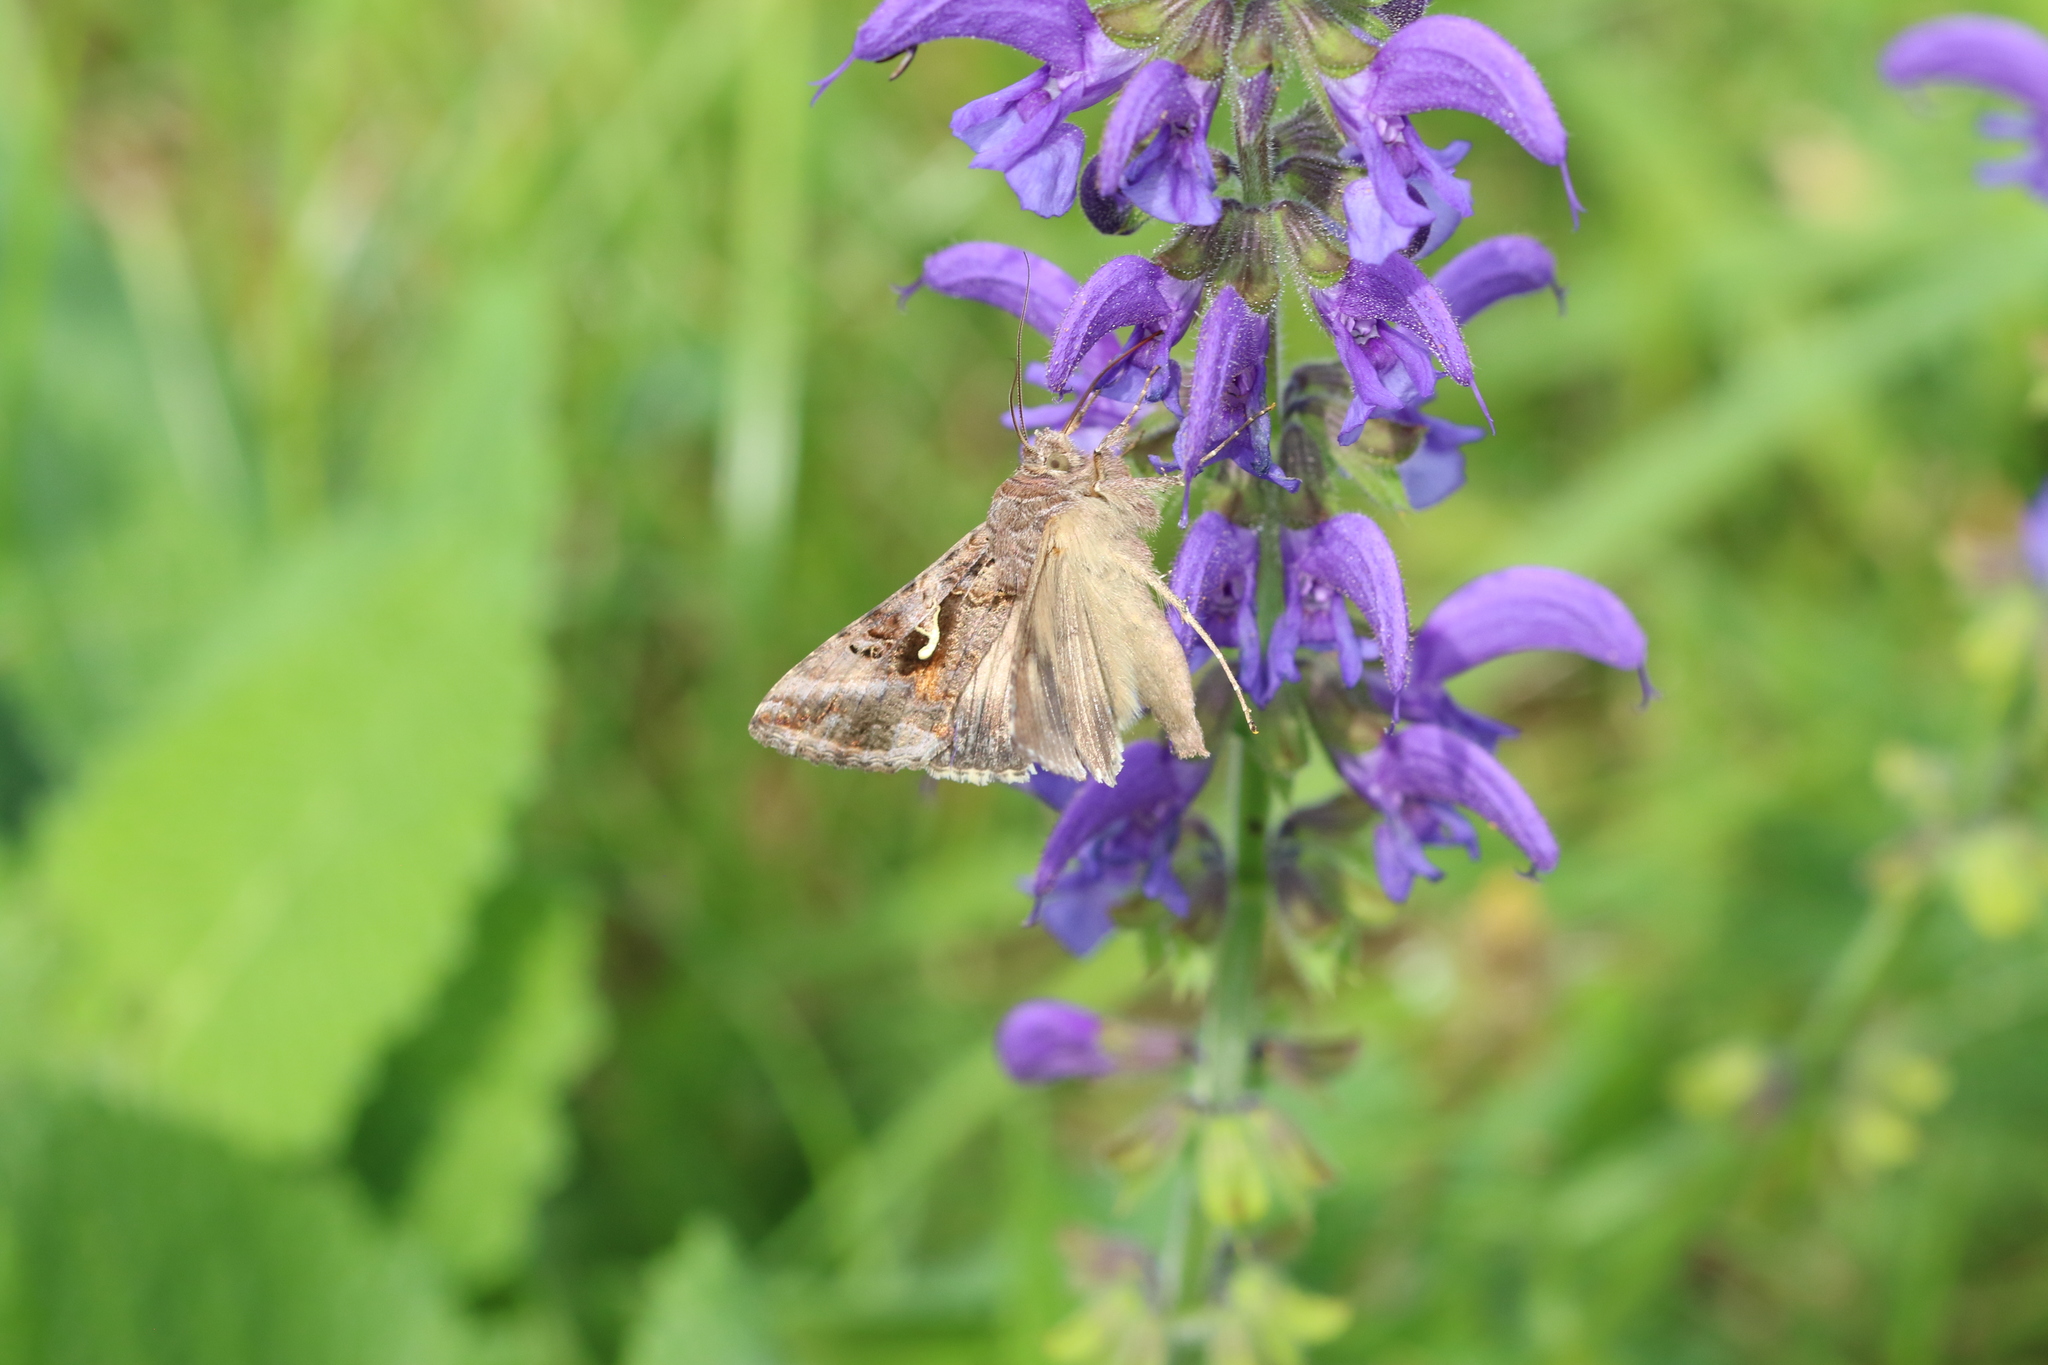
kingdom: Animalia
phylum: Arthropoda
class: Insecta
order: Lepidoptera
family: Noctuidae
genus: Autographa
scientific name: Autographa gamma
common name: Silver y
